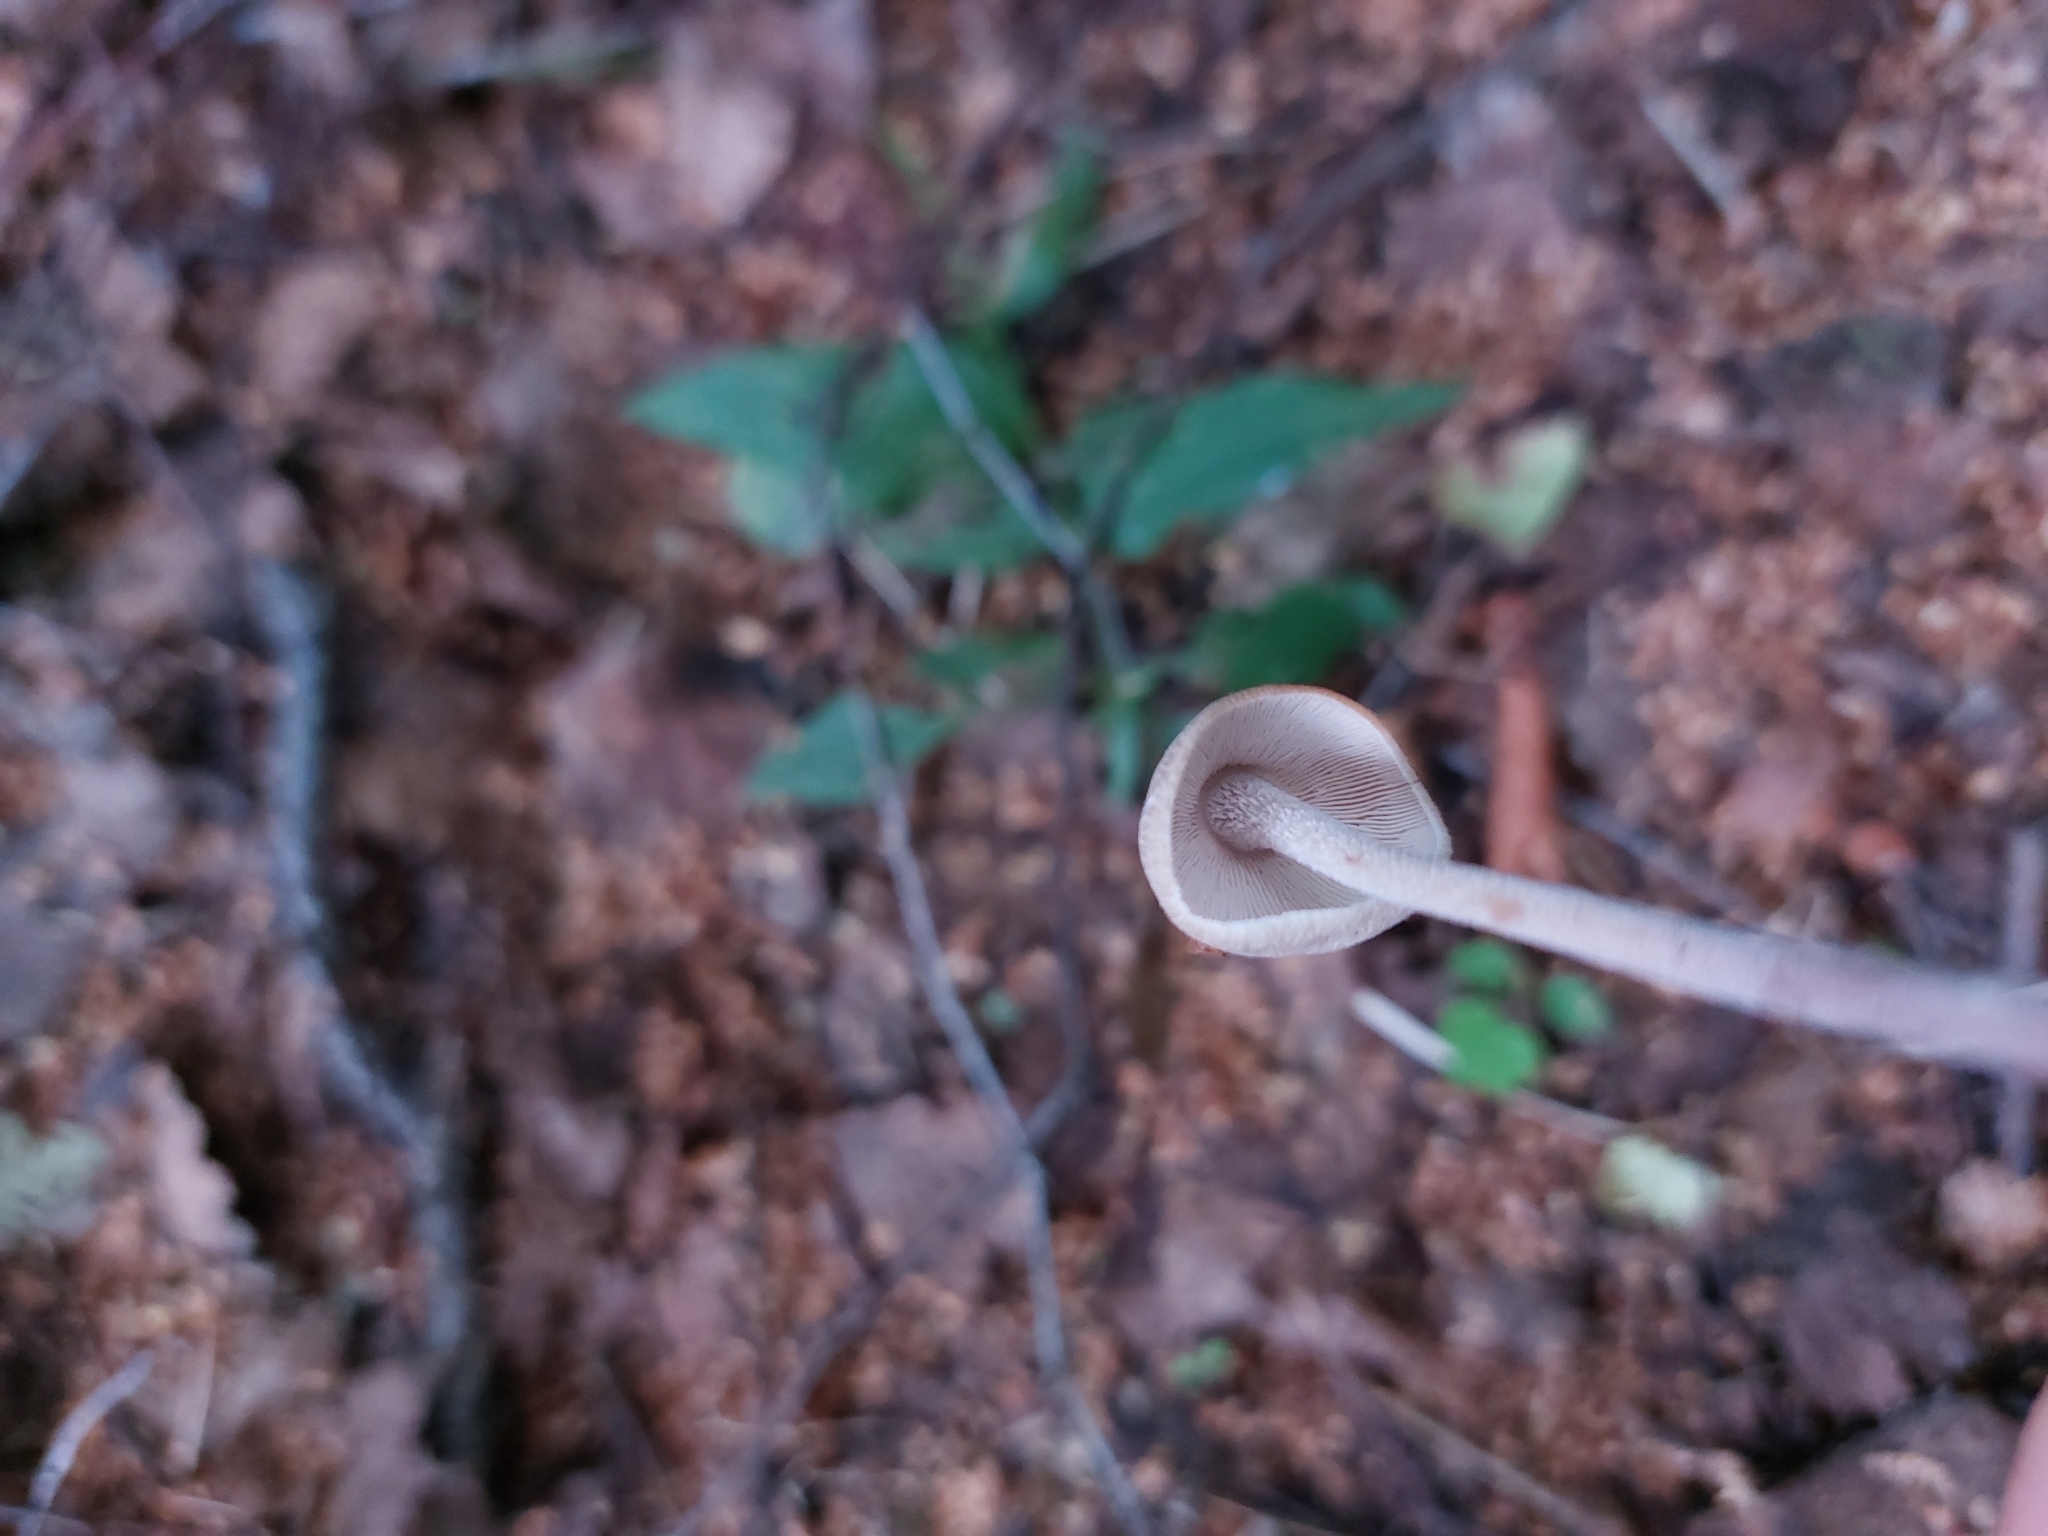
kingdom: Fungi
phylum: Basidiomycota
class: Agaricomycetes
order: Agaricales
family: Omphalotaceae
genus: Collybiopsis
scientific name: Collybiopsis confluens
